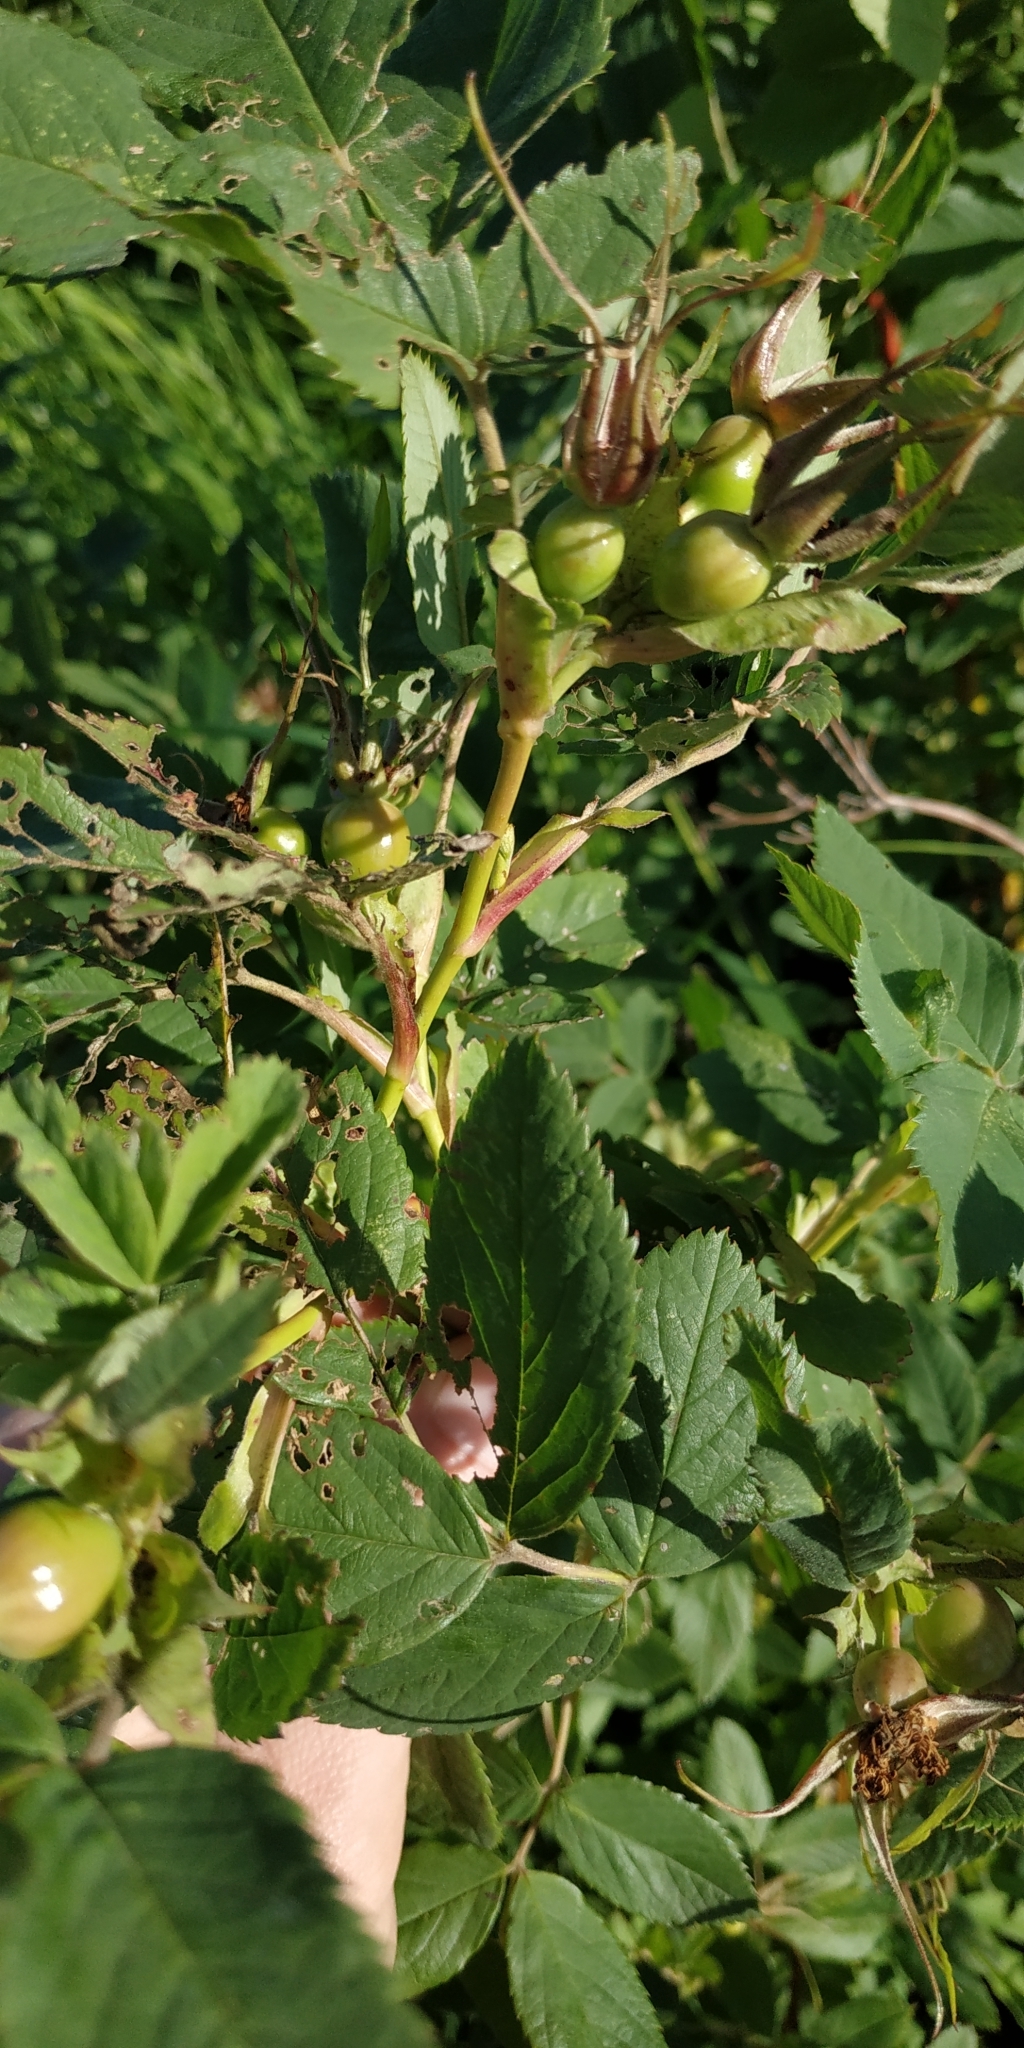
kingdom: Plantae
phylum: Tracheophyta
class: Magnoliopsida
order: Rosales
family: Rosaceae
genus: Rosa
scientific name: Rosa majalis
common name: Cinnamon rose
